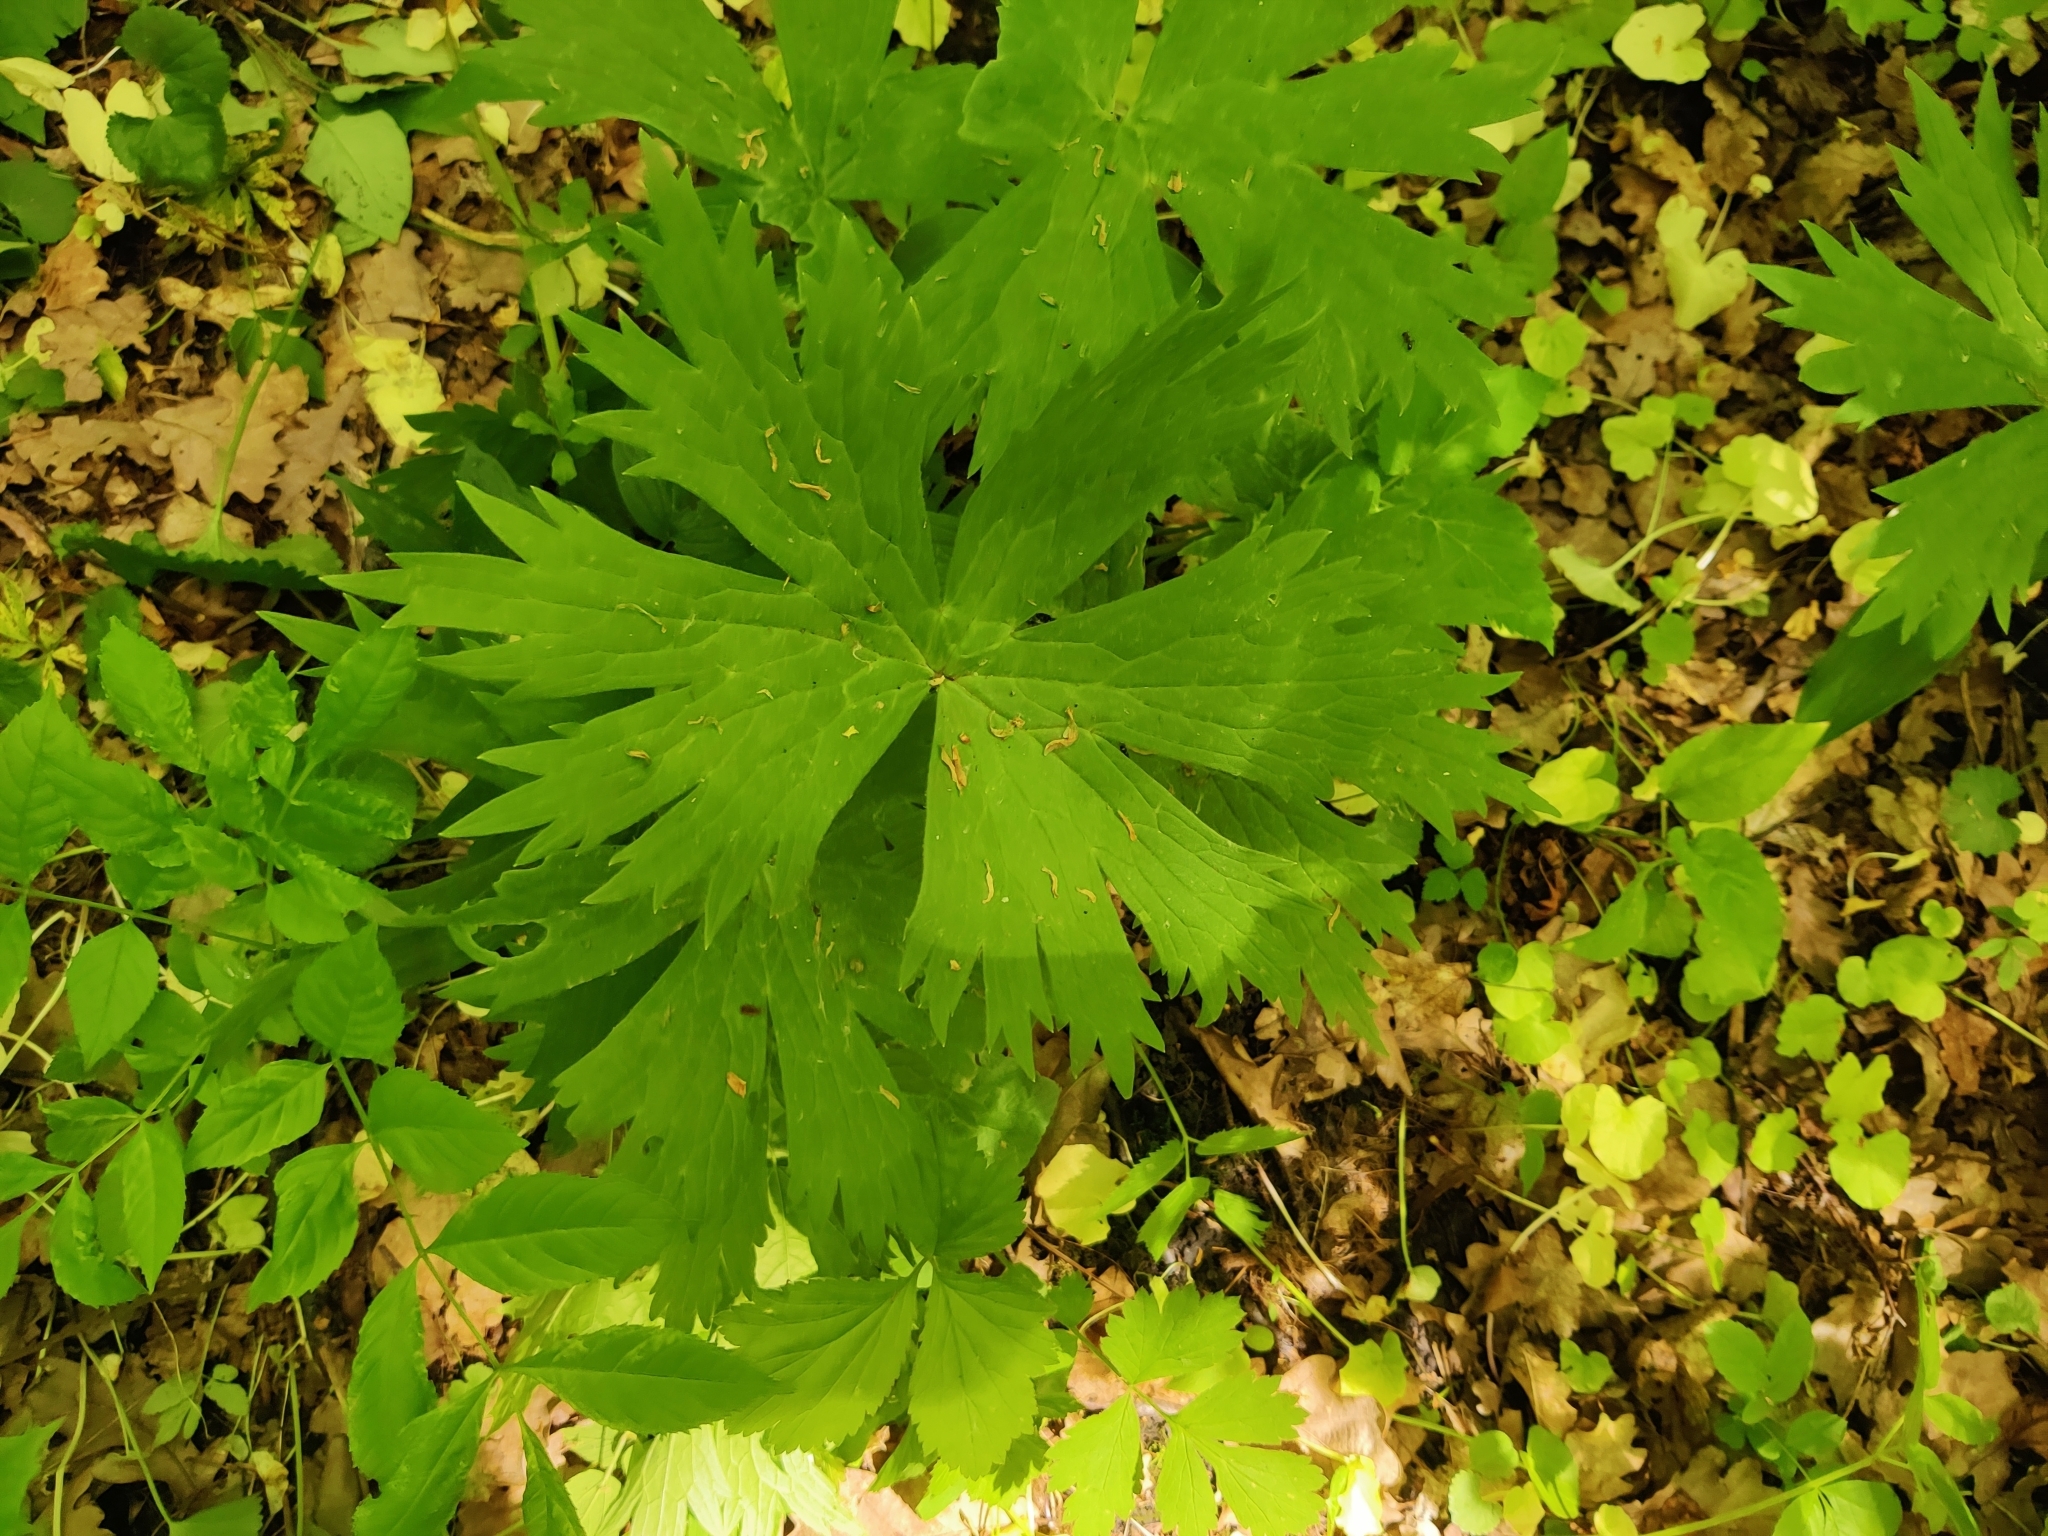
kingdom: Plantae
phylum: Tracheophyta
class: Magnoliopsida
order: Ranunculales
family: Ranunculaceae
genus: Aconitum
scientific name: Aconitum septentrionale
